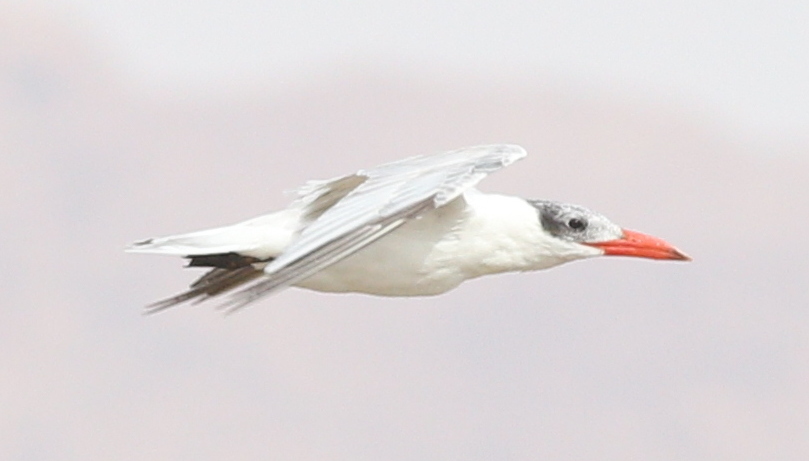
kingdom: Animalia
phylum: Chordata
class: Aves
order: Charadriiformes
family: Laridae
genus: Hydroprogne
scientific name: Hydroprogne caspia
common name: Caspian tern
